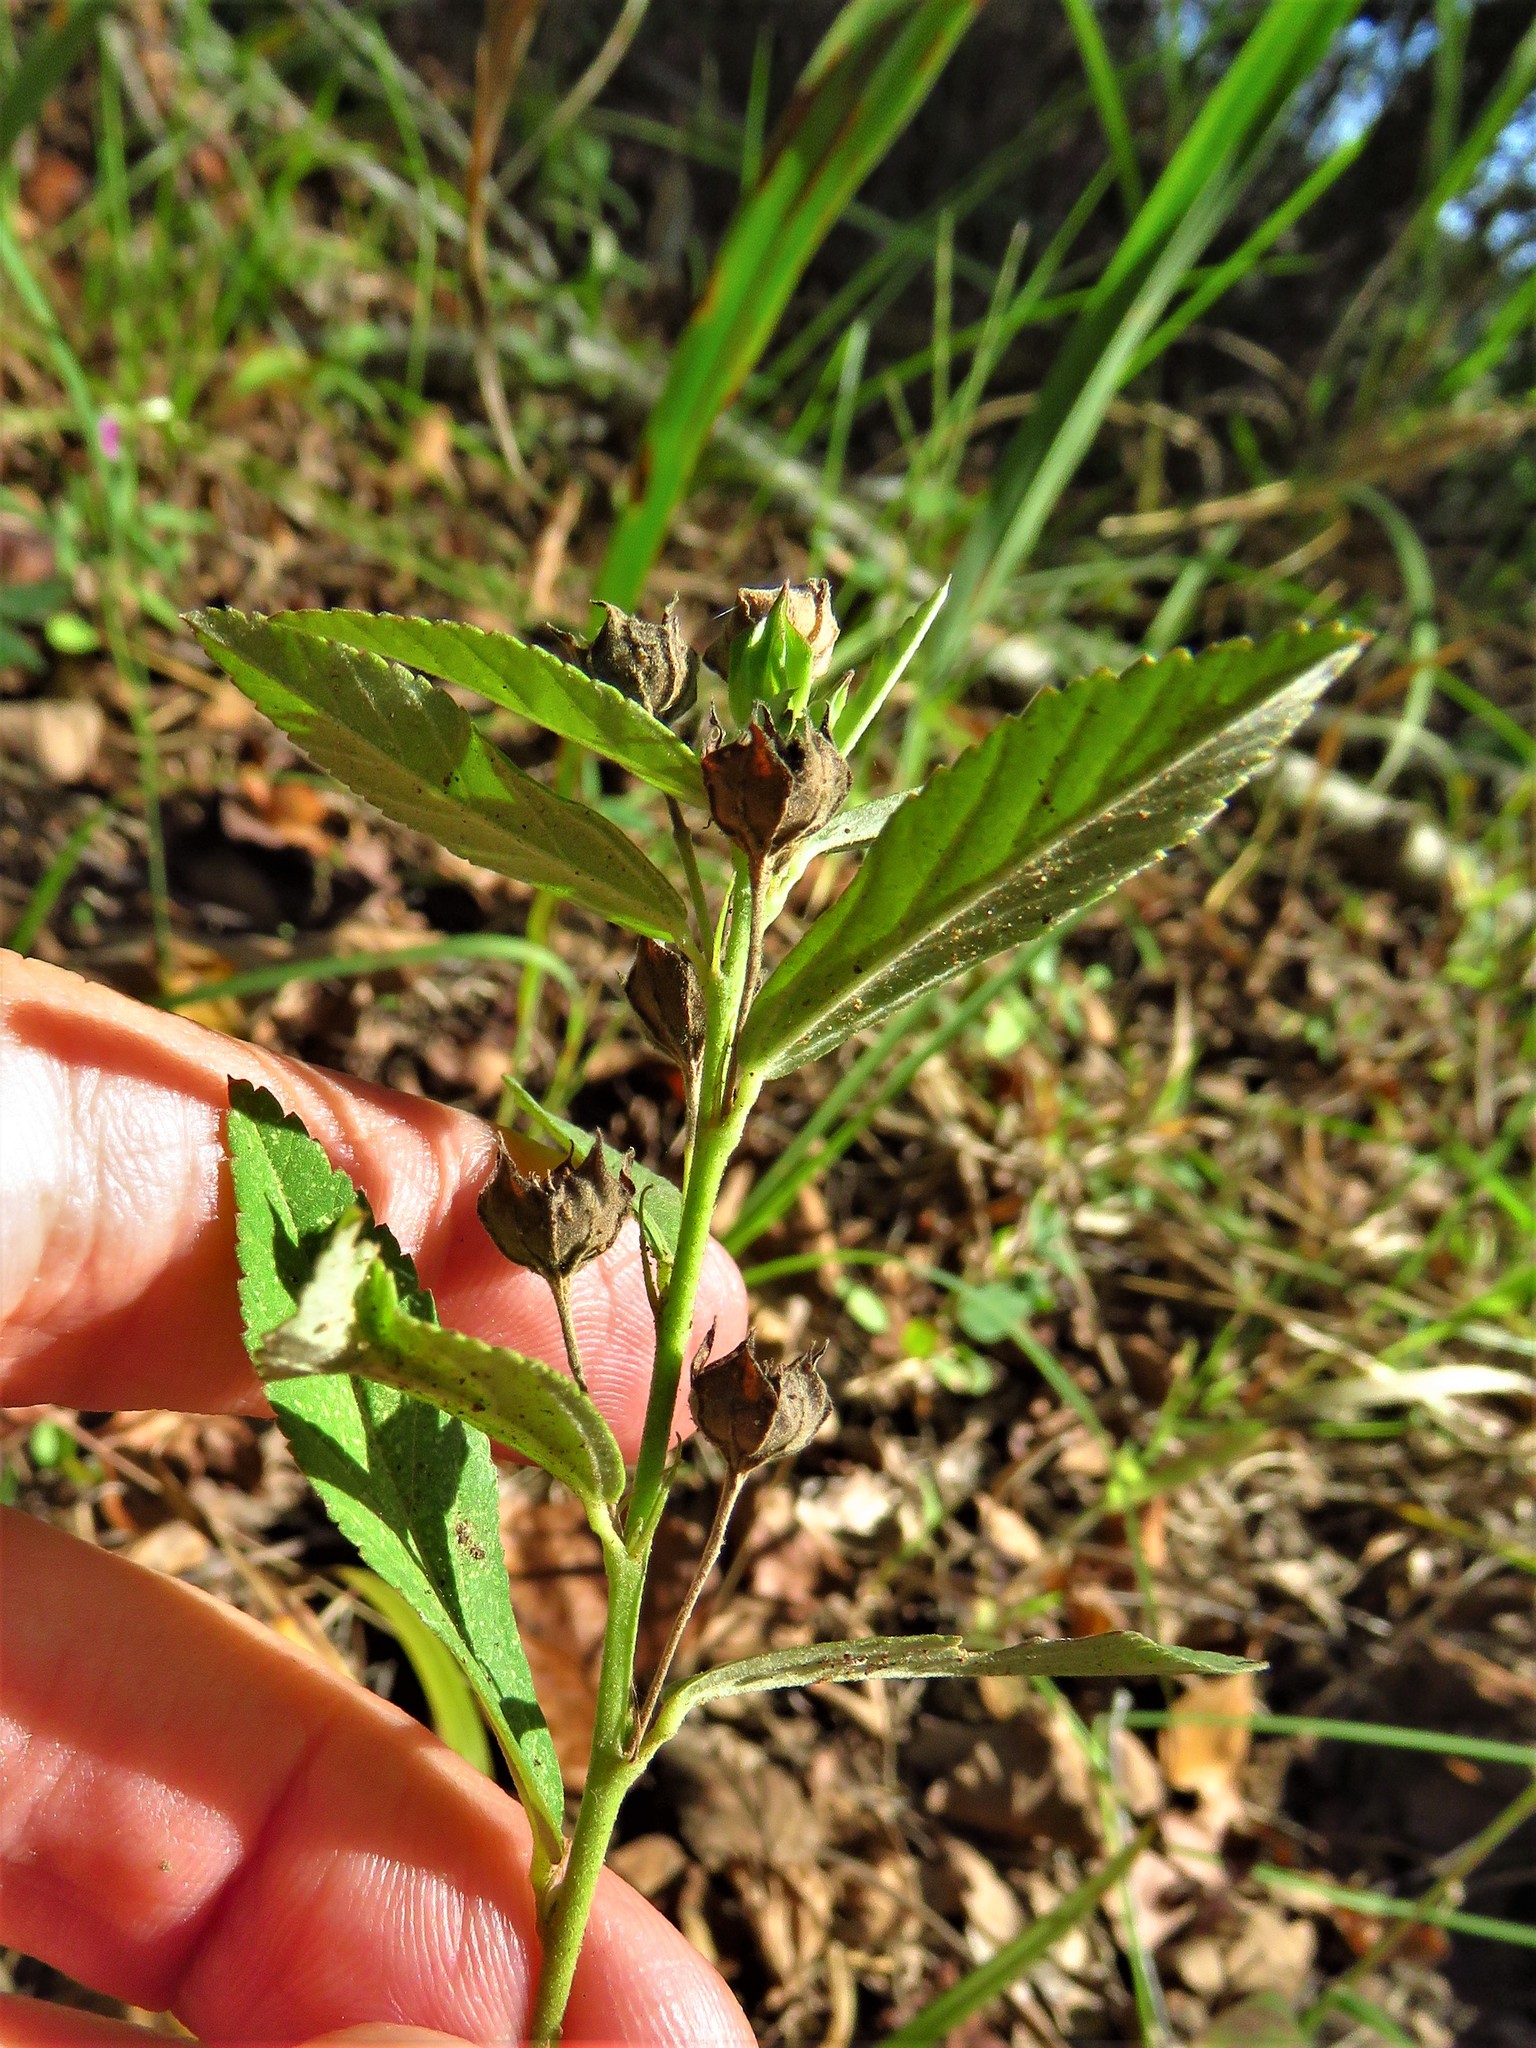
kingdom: Plantae
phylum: Tracheophyta
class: Magnoliopsida
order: Malvales
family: Malvaceae
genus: Sida
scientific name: Sida rhombifolia
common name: Queensland-hemp
